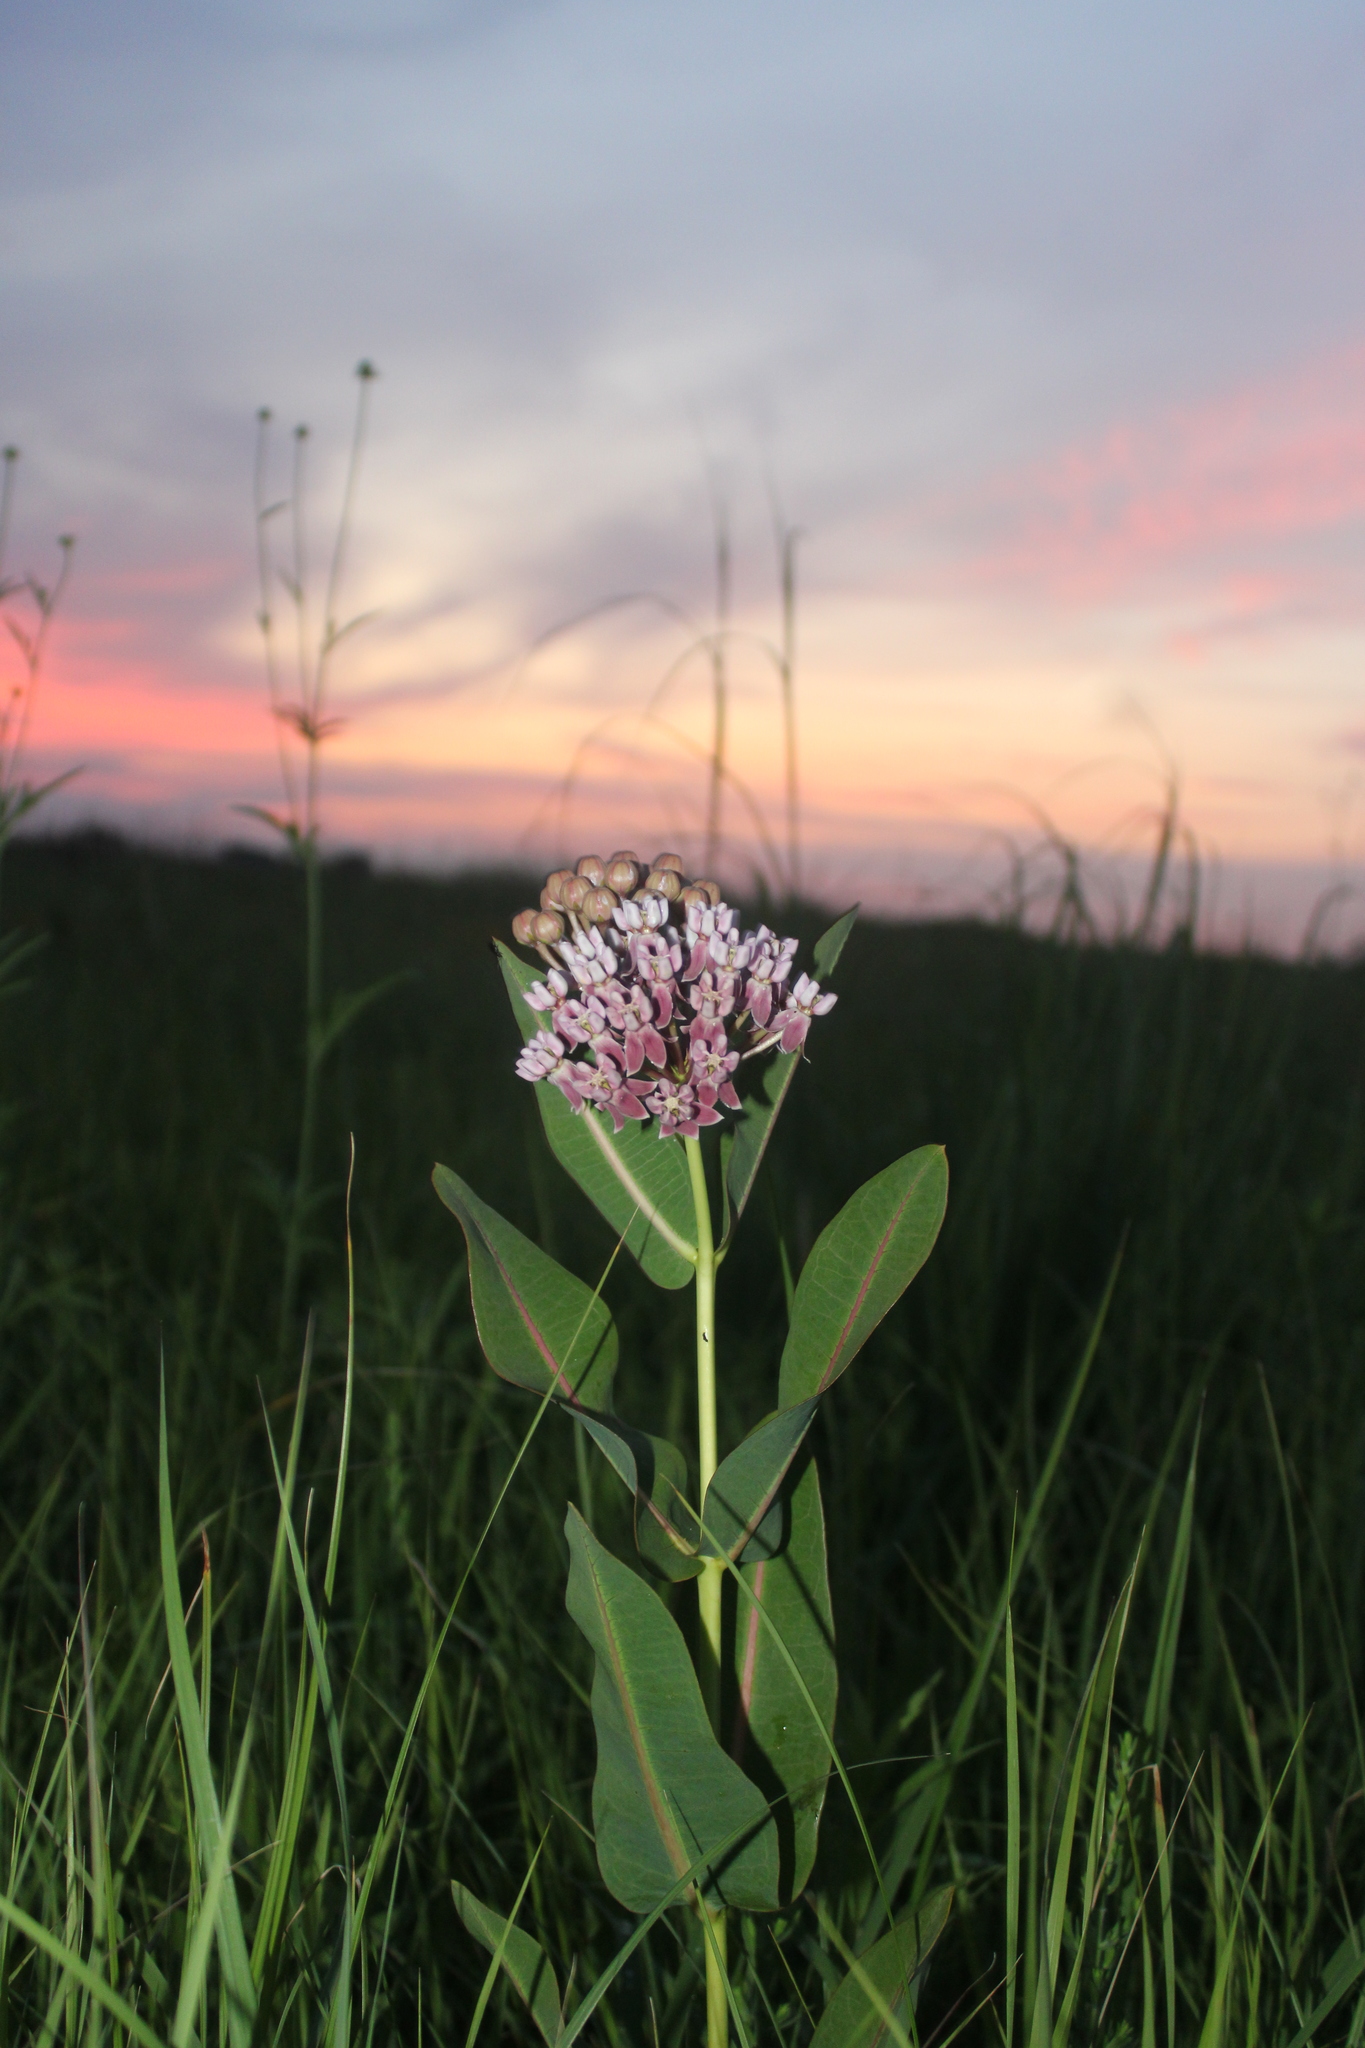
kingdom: Plantae
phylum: Tracheophyta
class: Magnoliopsida
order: Gentianales
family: Apocynaceae
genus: Asclepias
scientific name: Asclepias sullivantii
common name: Prairie milkweed
